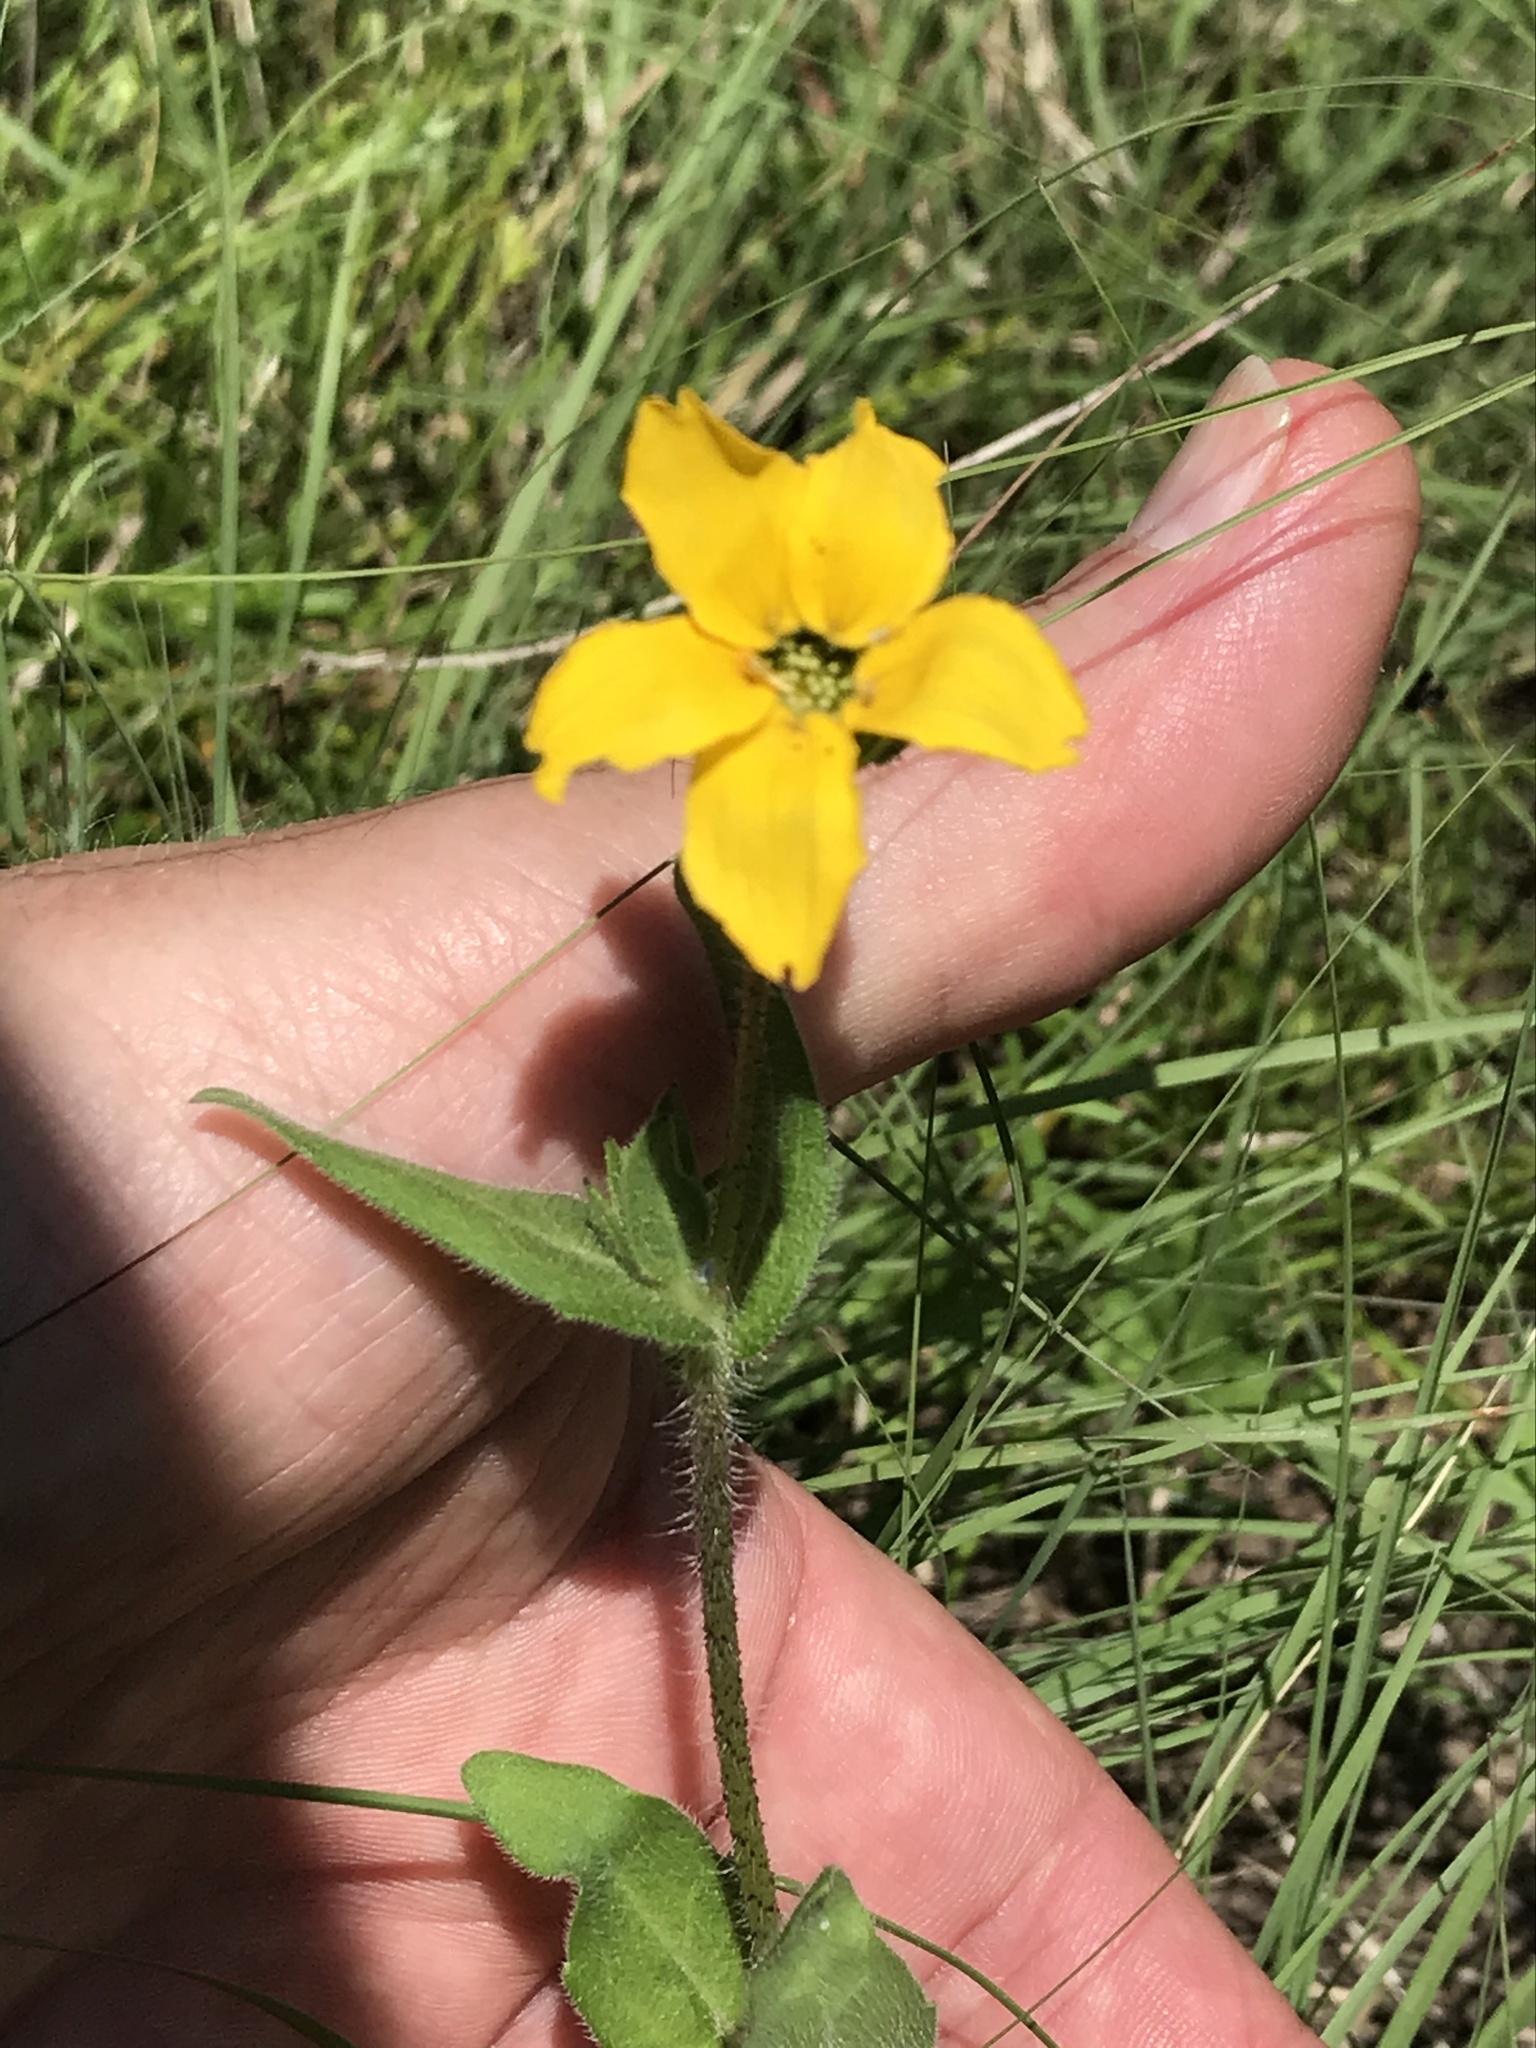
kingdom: Plantae
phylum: Tracheophyta
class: Magnoliopsida
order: Asterales
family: Asteraceae
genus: Lindheimera
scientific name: Lindheimera texana
